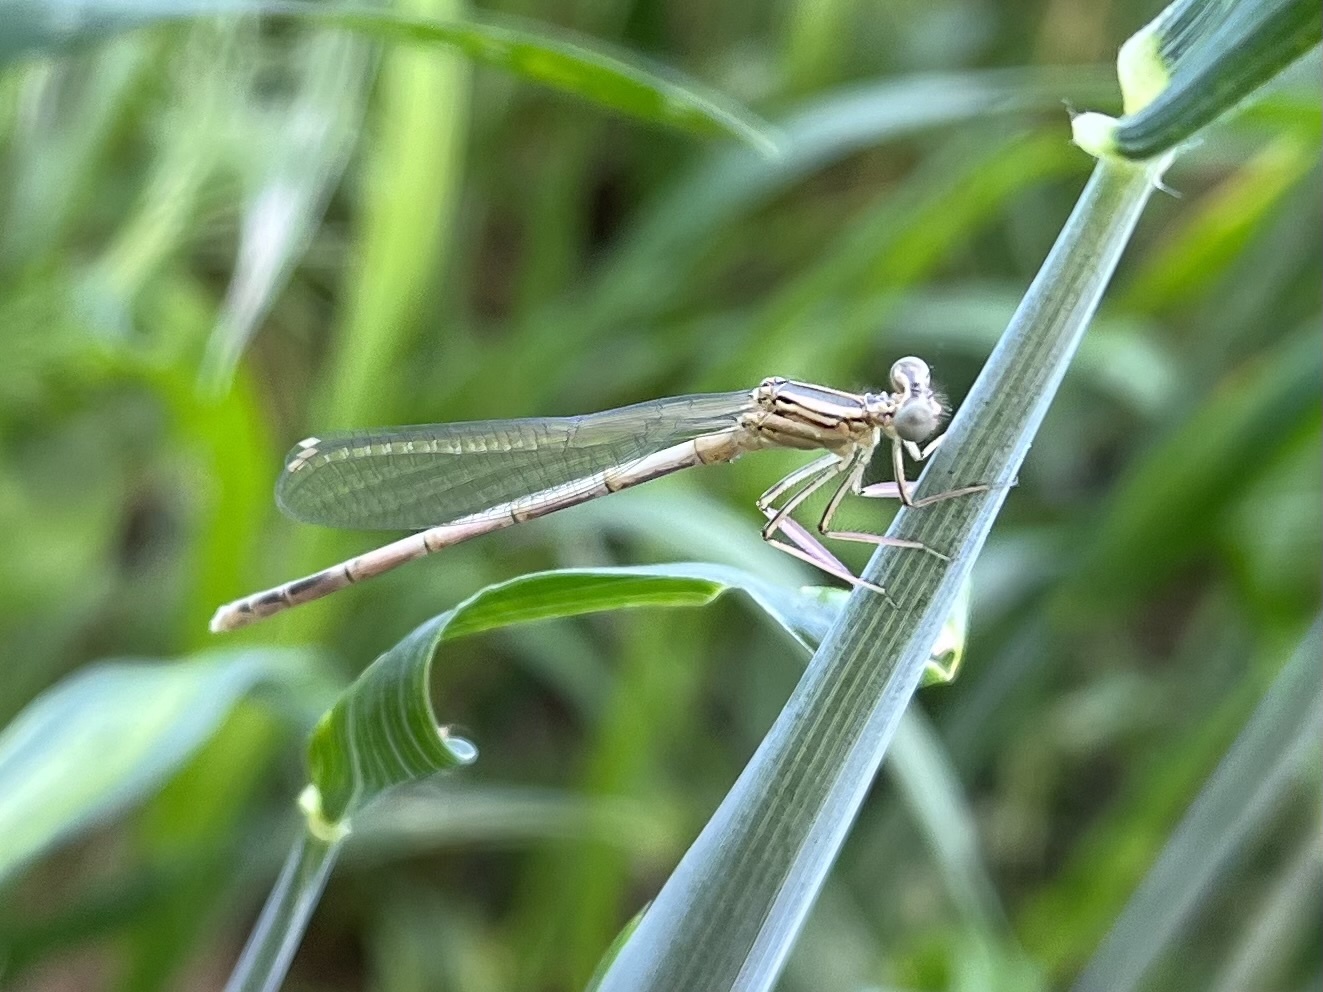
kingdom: Animalia
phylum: Arthropoda
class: Insecta
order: Odonata
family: Platycnemididae
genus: Platycnemis
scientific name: Platycnemis pennipes
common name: White-legged damselfly
